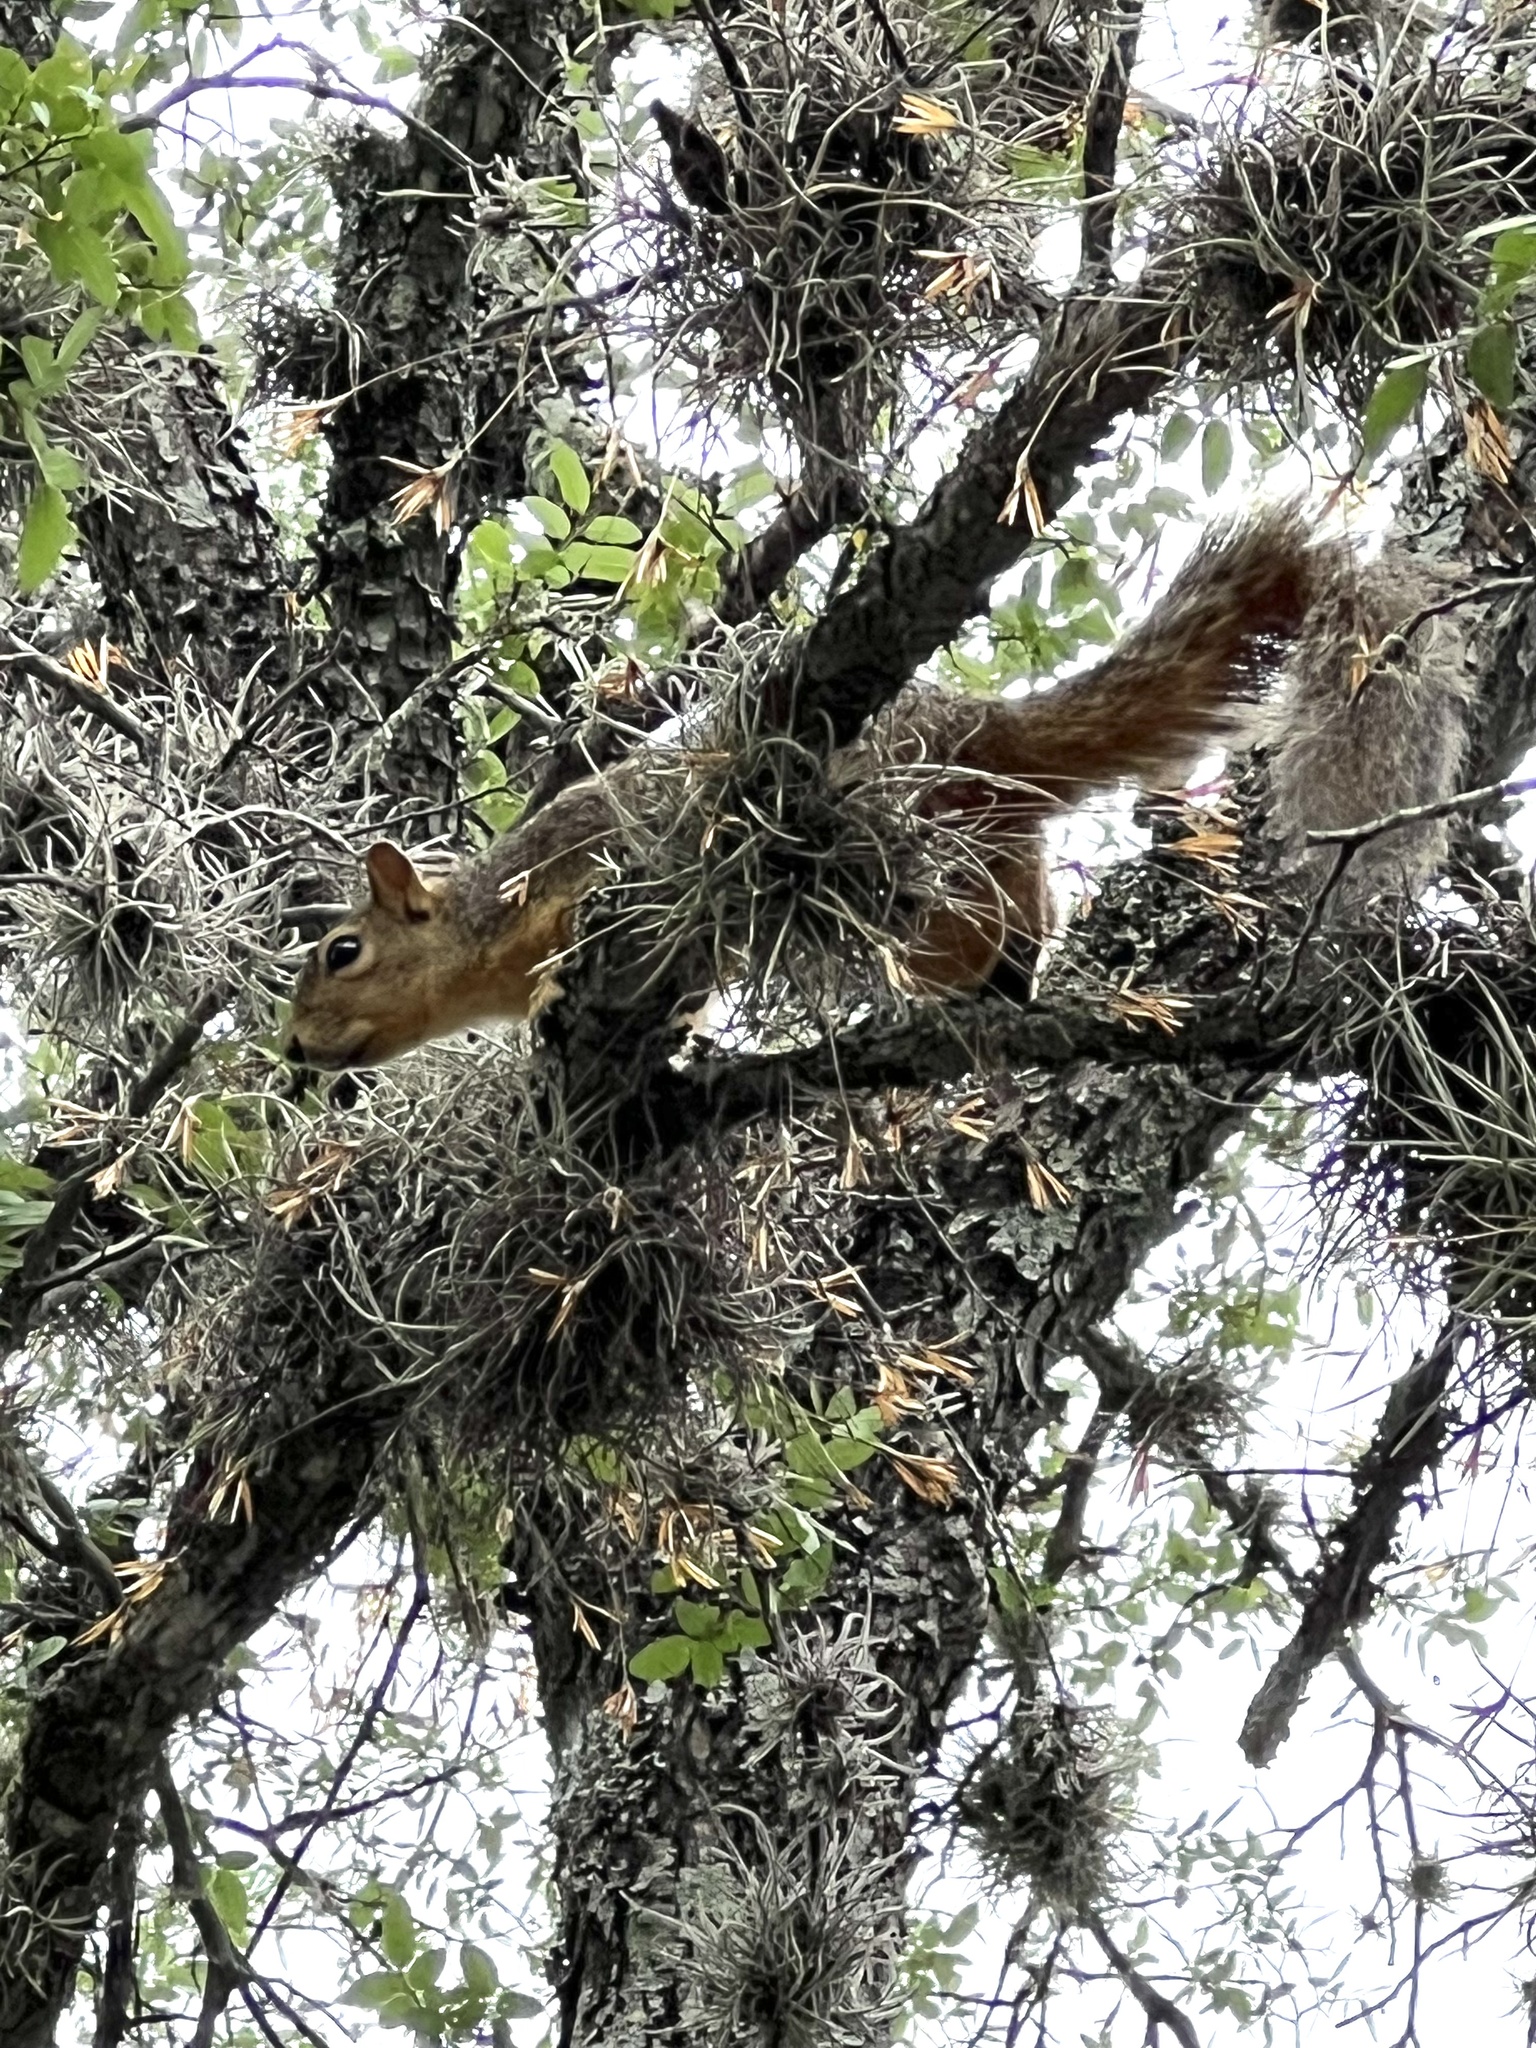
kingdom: Animalia
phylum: Chordata
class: Mammalia
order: Rodentia
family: Sciuridae
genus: Sciurus
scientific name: Sciurus niger
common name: Fox squirrel
